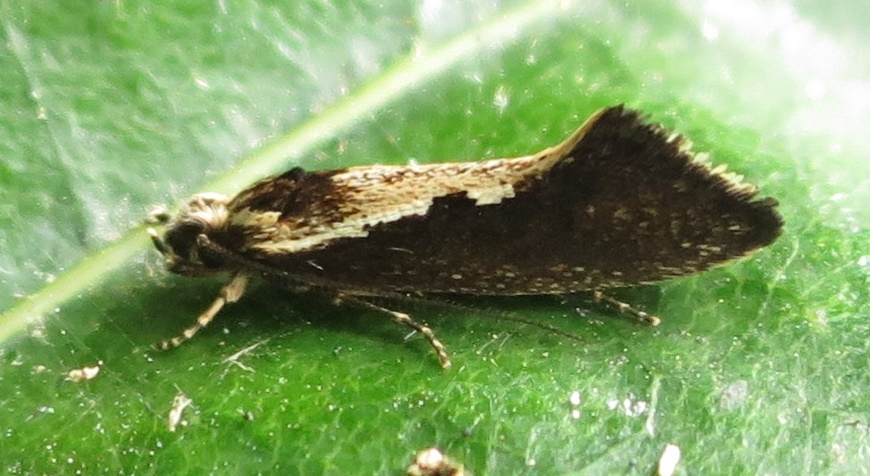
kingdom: Animalia
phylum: Arthropoda
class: Insecta
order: Lepidoptera
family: Tineidae
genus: Tinea
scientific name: Tinea belonota
